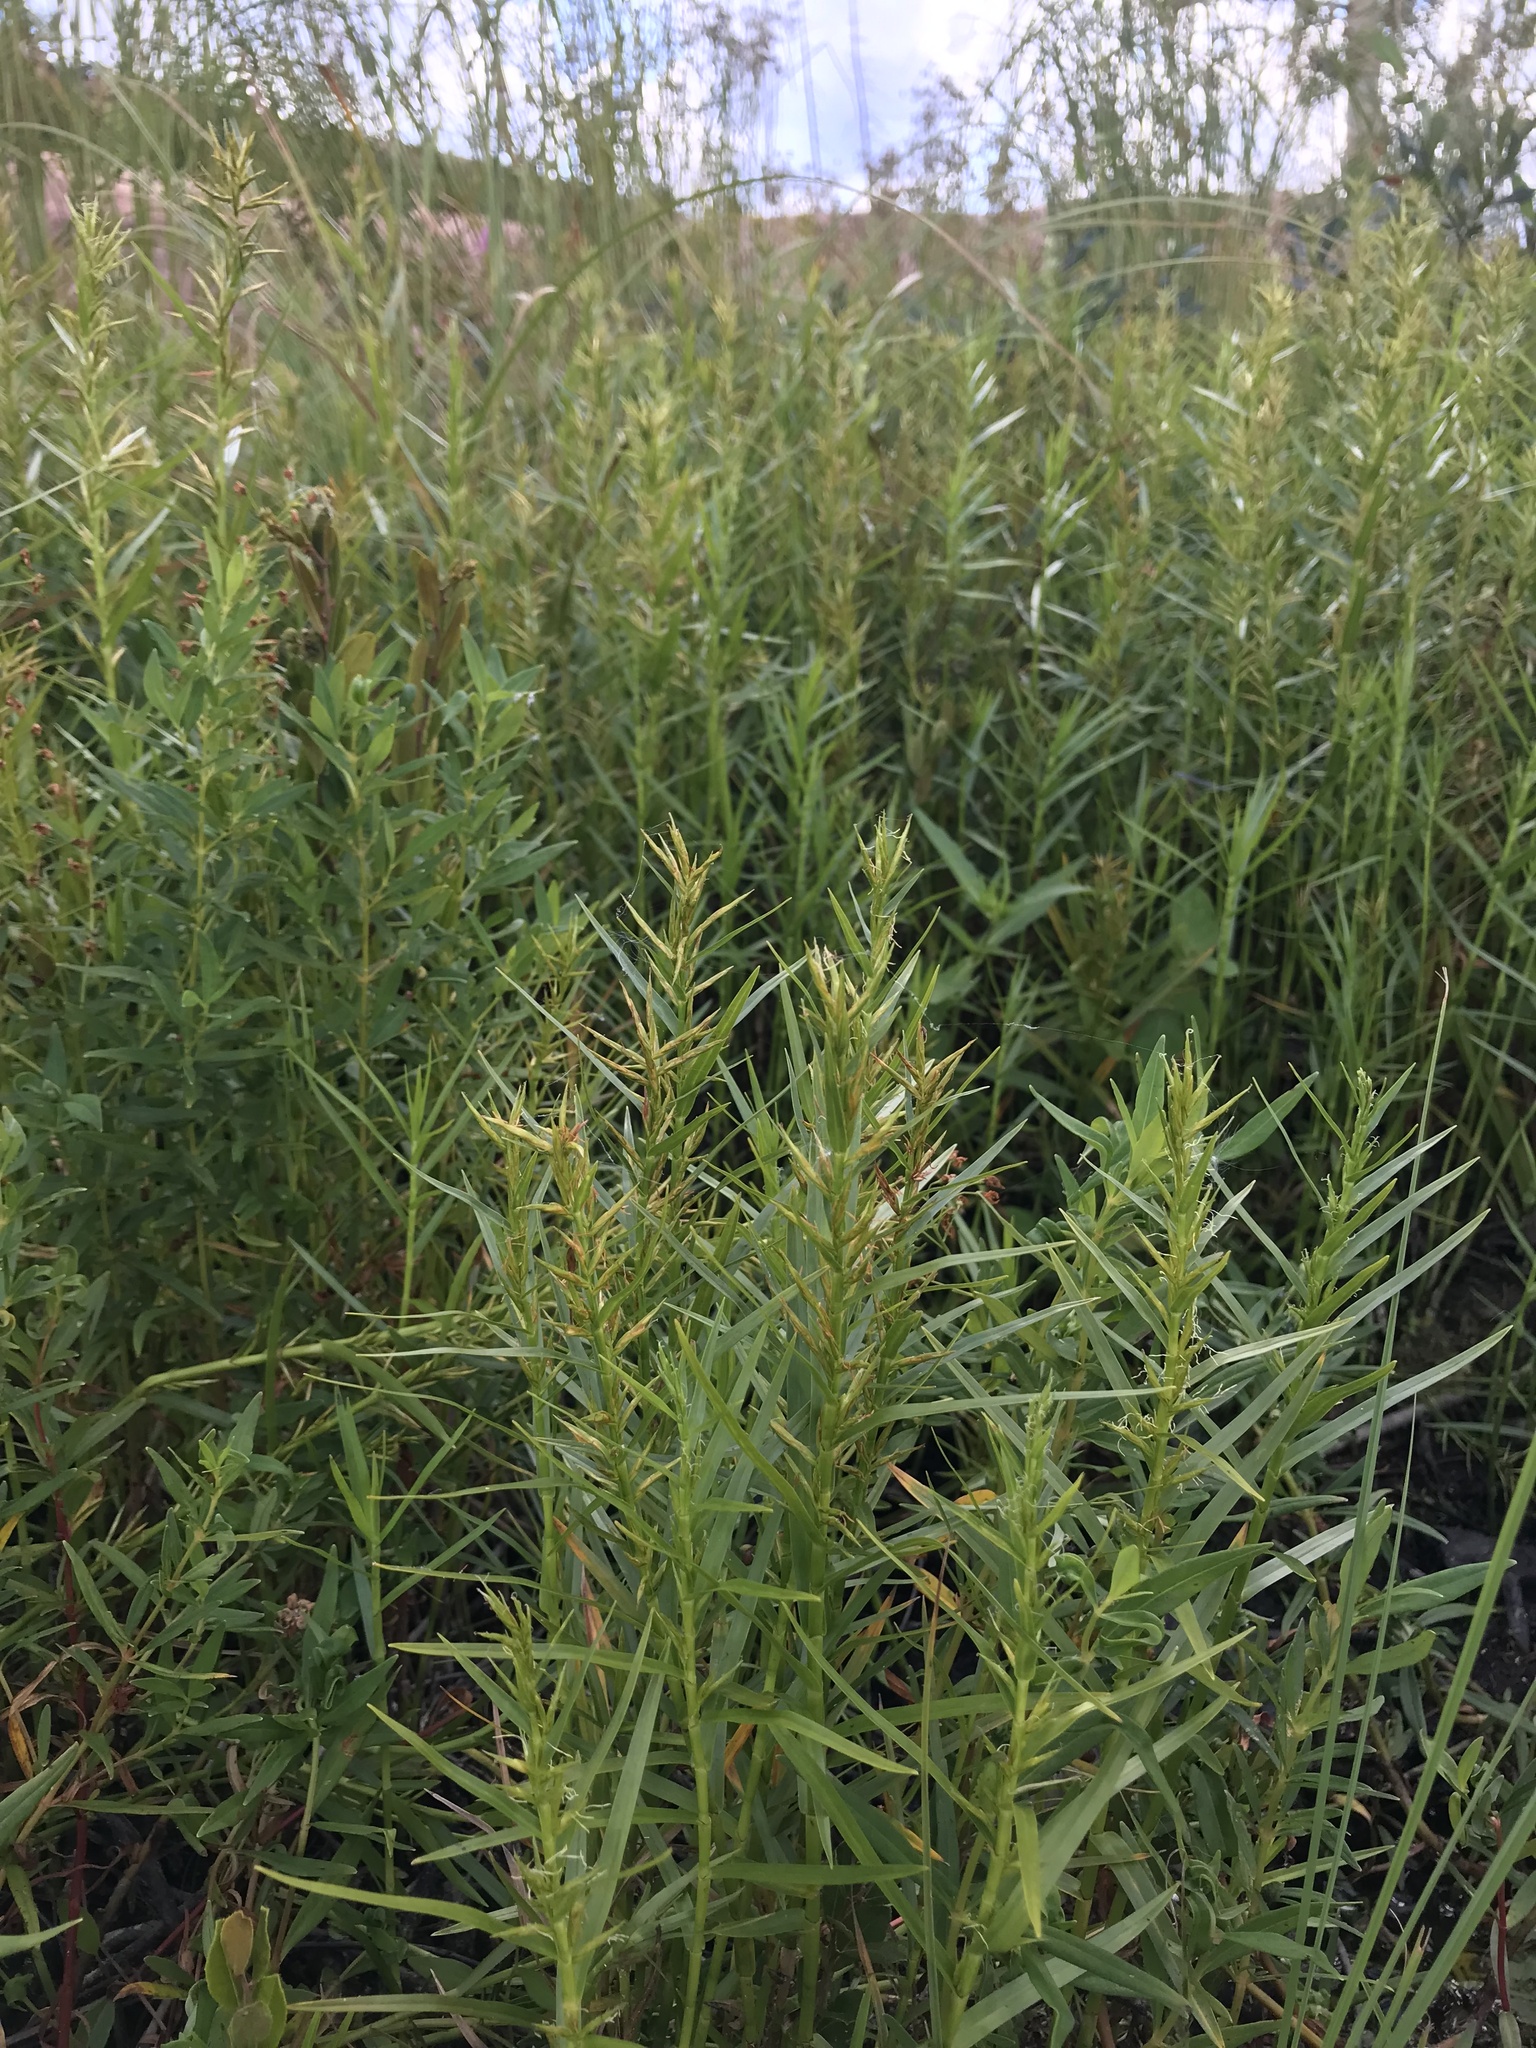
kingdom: Plantae
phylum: Tracheophyta
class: Liliopsida
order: Poales
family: Cyperaceae
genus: Dulichium
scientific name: Dulichium arundinaceum
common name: Three-way sedge
